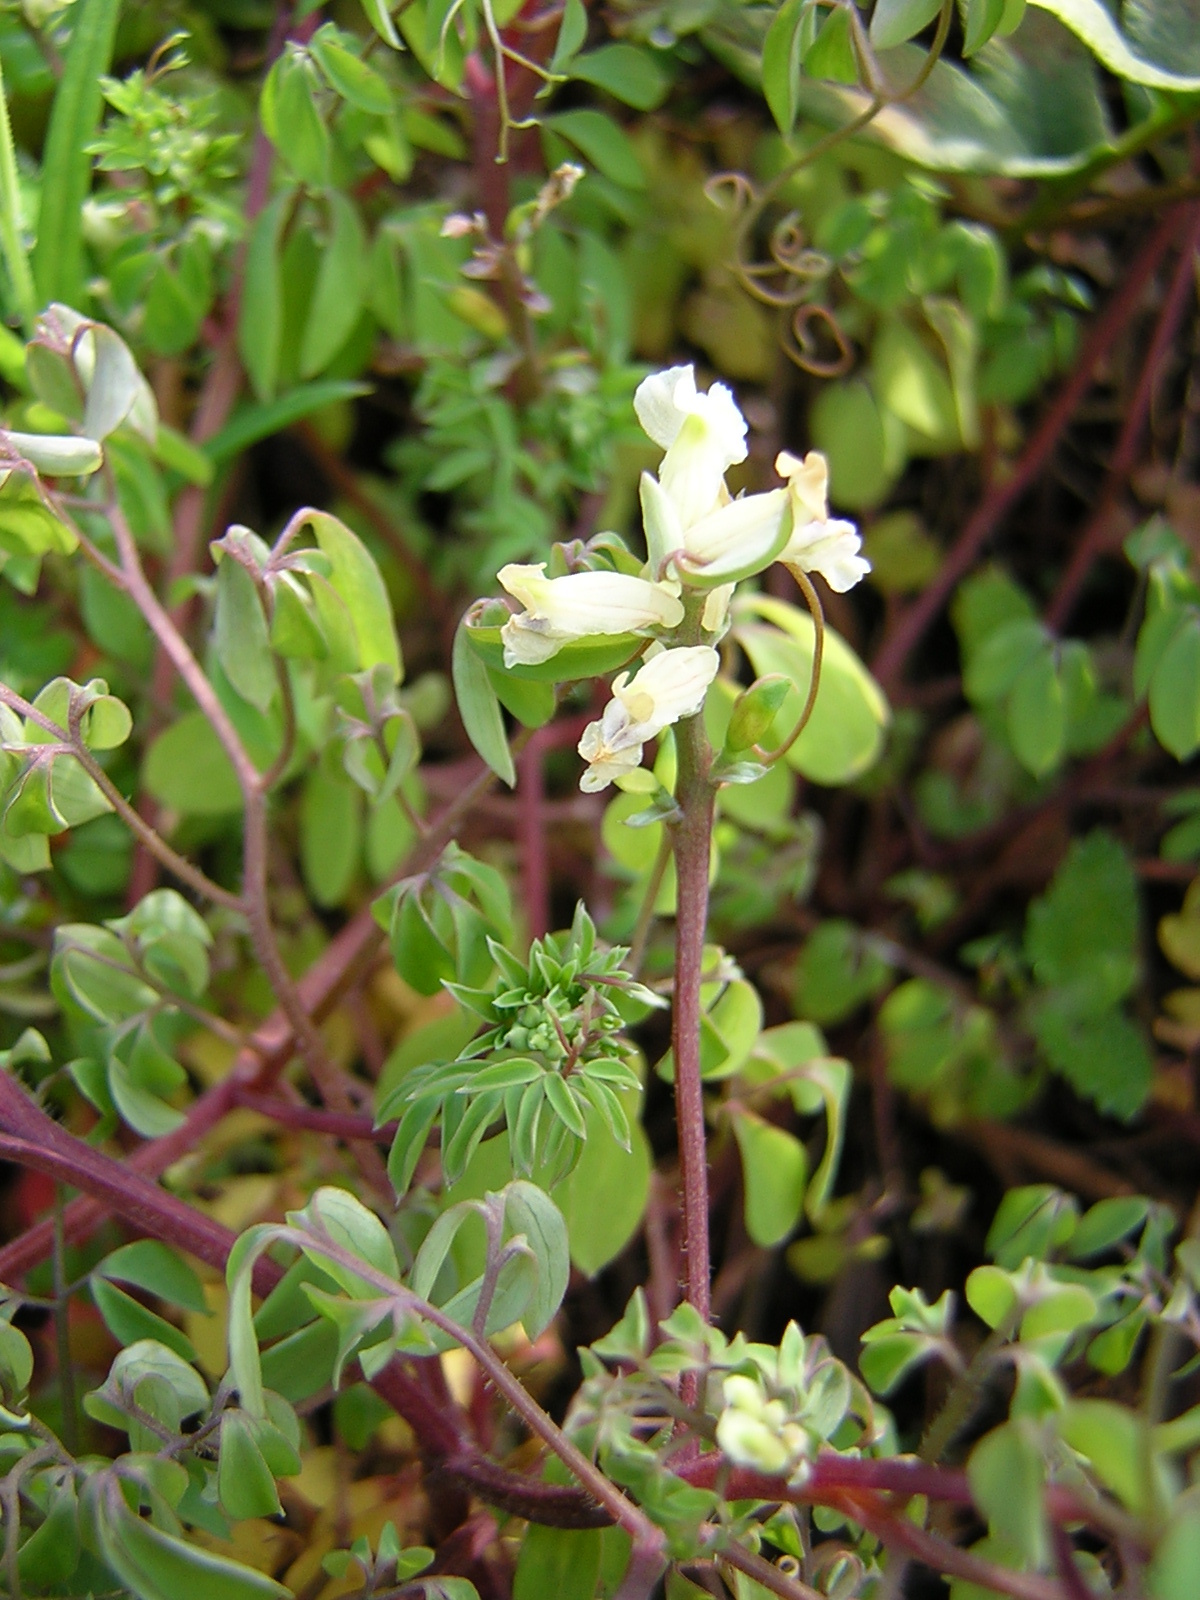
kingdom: Plantae
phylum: Tracheophyta
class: Magnoliopsida
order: Ranunculales
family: Papaveraceae
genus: Ceratocapnos
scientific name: Ceratocapnos claviculata
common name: Climbing corydalis
